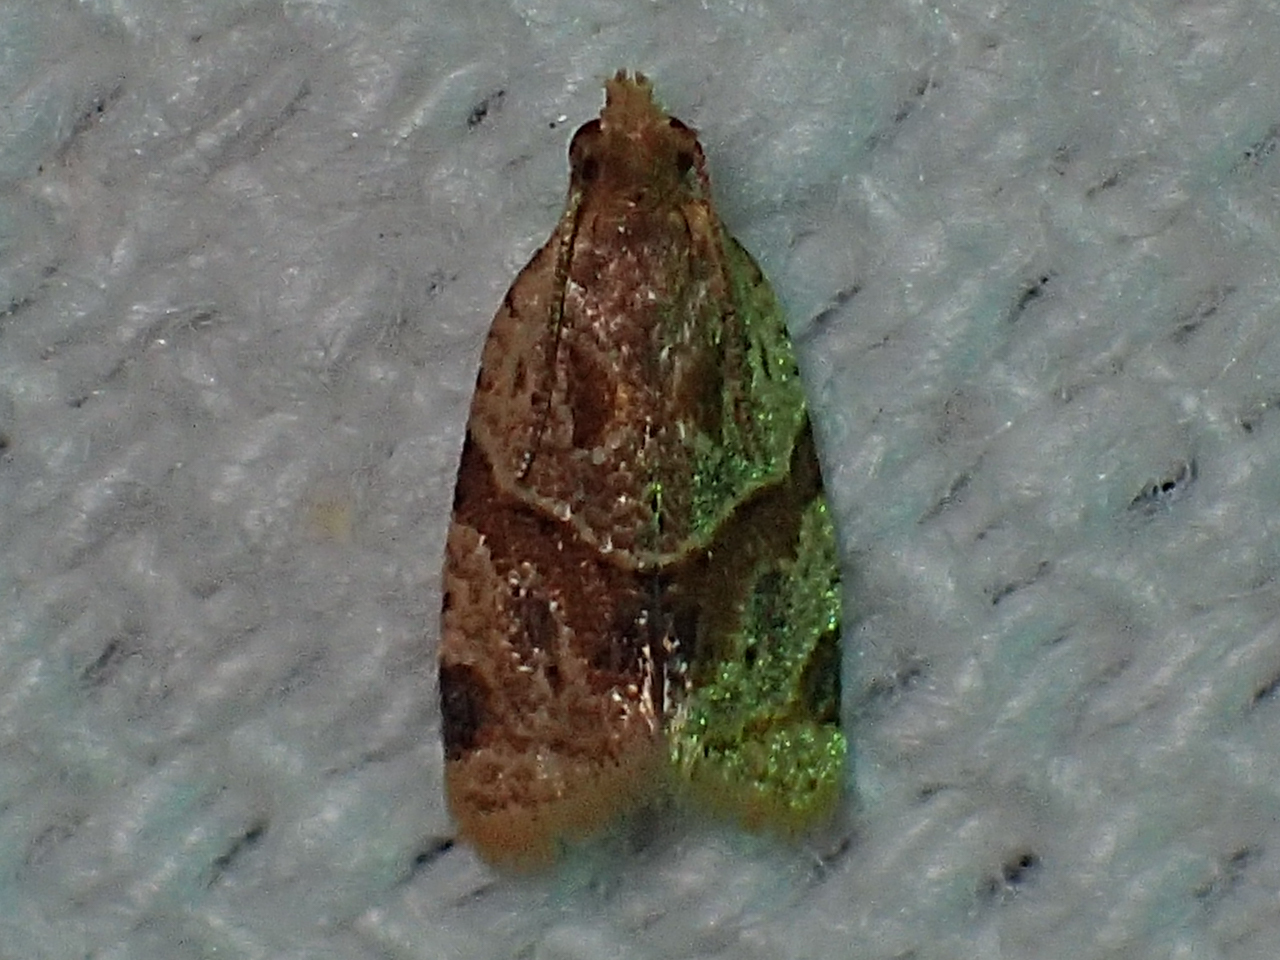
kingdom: Animalia
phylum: Arthropoda
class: Insecta
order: Lepidoptera
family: Tortricidae
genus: Clepsis
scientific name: Clepsis peritana
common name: Garden tortrix
